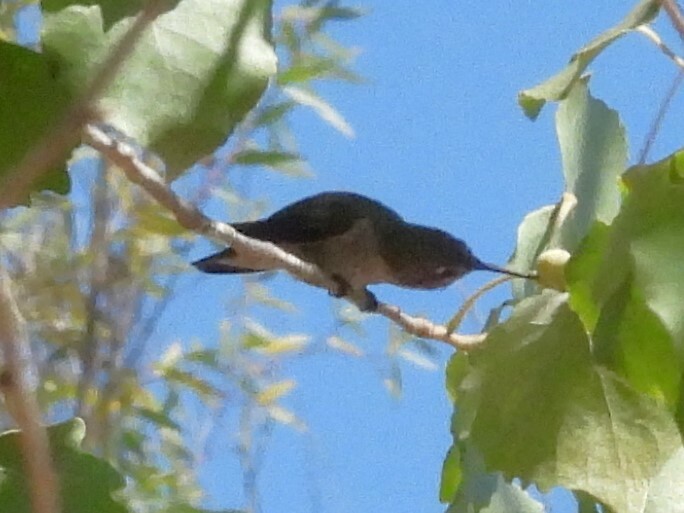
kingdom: Animalia
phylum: Chordata
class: Aves
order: Apodiformes
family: Trochilidae
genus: Calypte
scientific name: Calypte anna
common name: Anna's hummingbird
